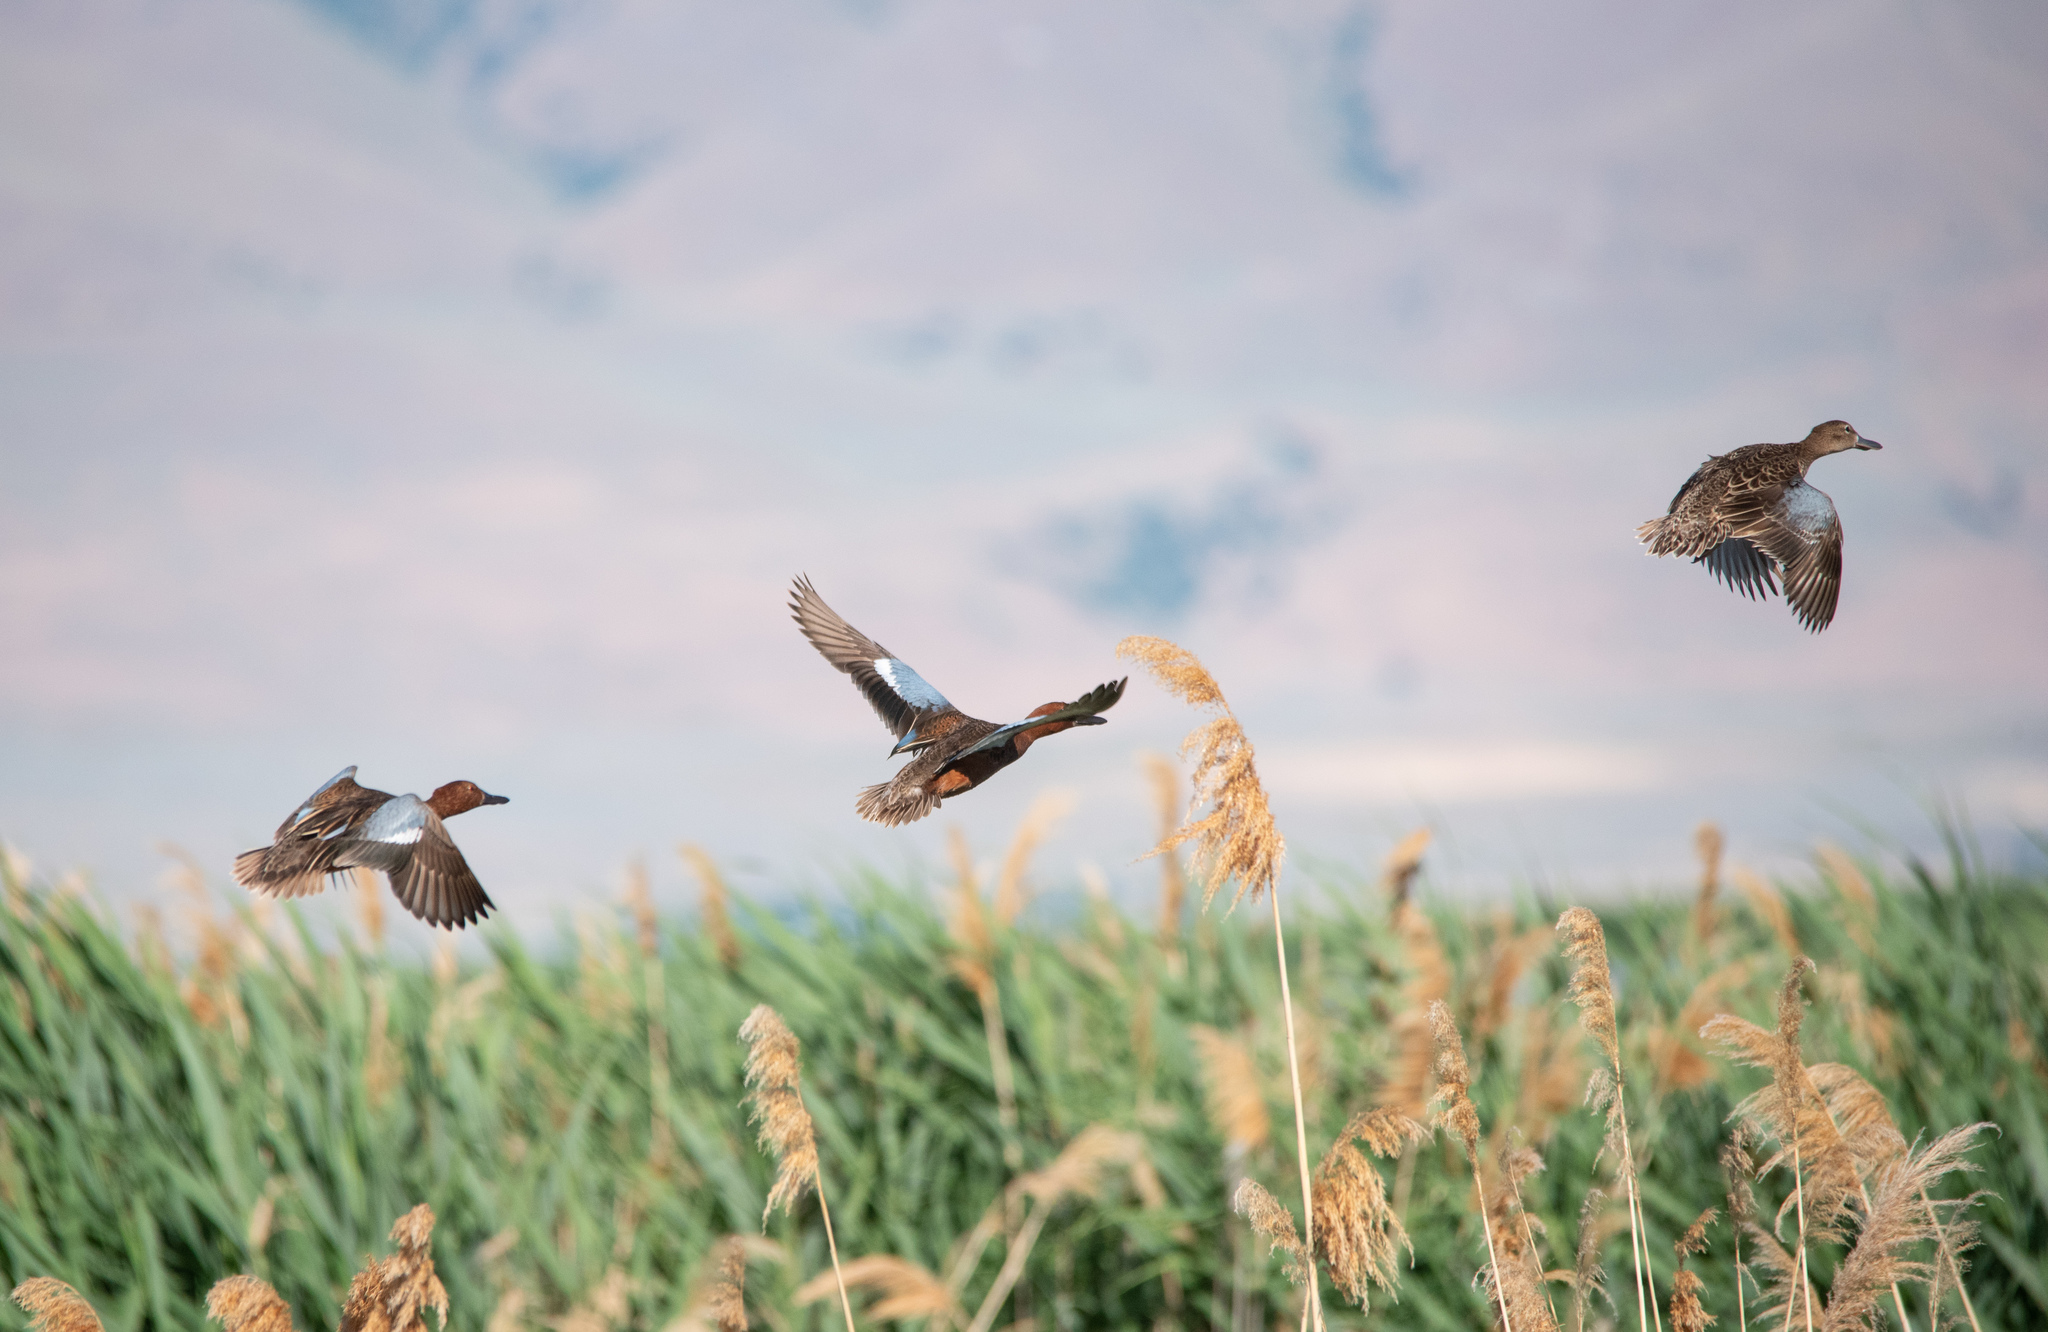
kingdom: Animalia
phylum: Chordata
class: Aves
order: Anseriformes
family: Anatidae
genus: Spatula
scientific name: Spatula cyanoptera
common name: Cinnamon teal
